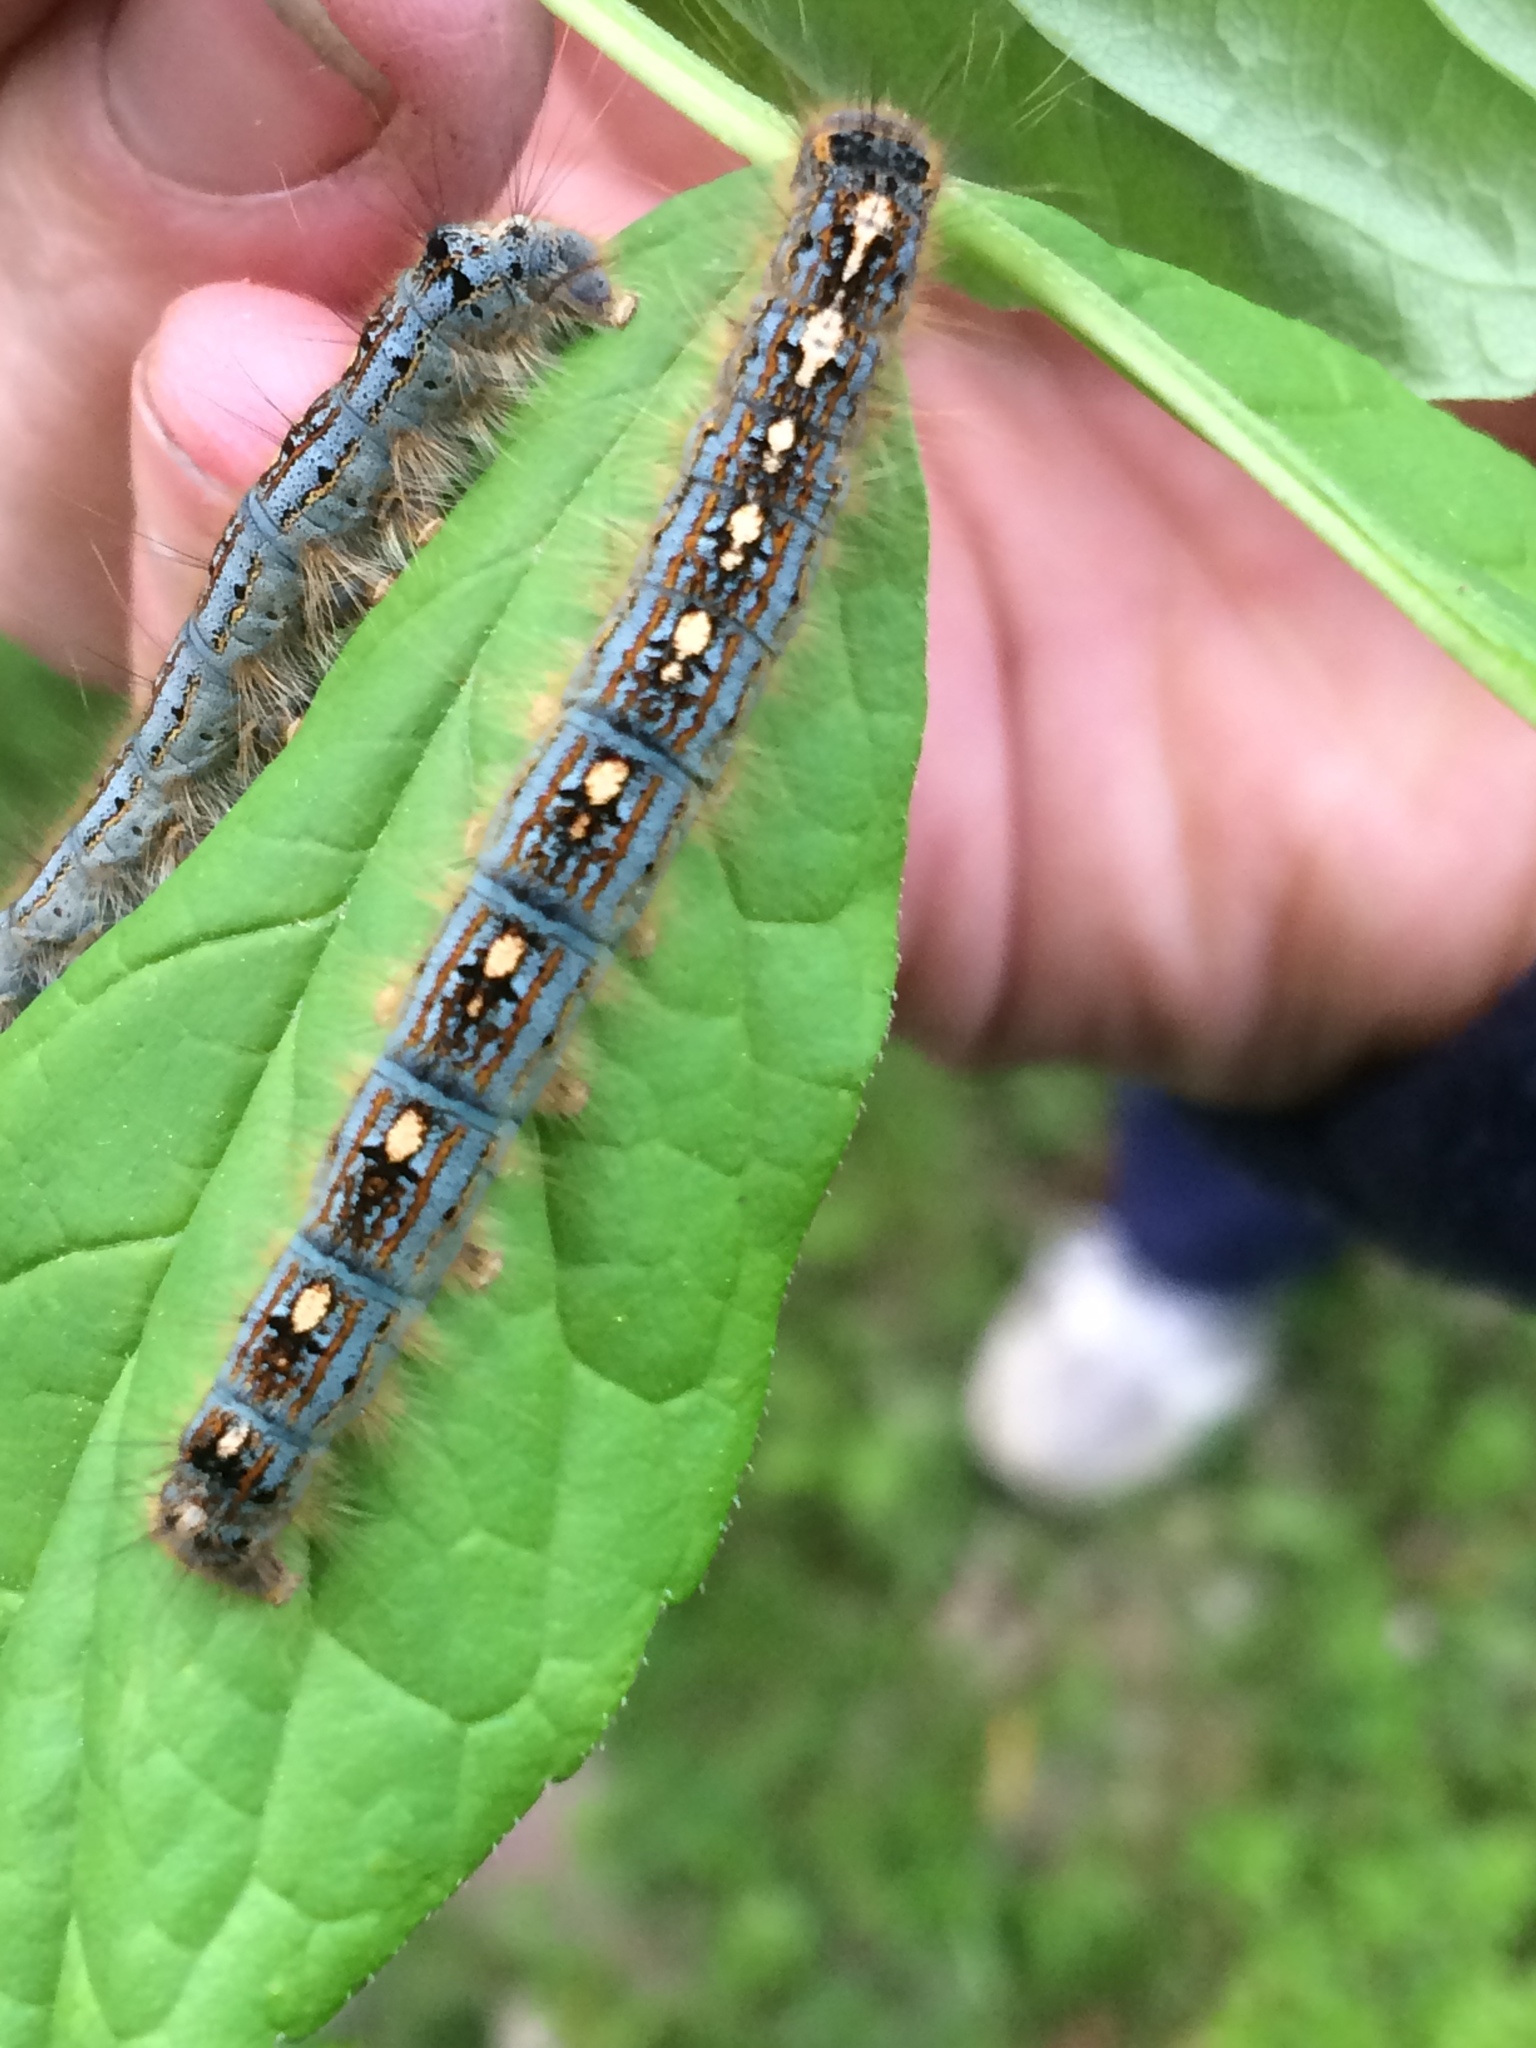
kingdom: Animalia
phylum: Arthropoda
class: Insecta
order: Lepidoptera
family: Lasiocampidae
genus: Malacosoma
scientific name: Malacosoma disstria
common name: Forest tent caterpillar
